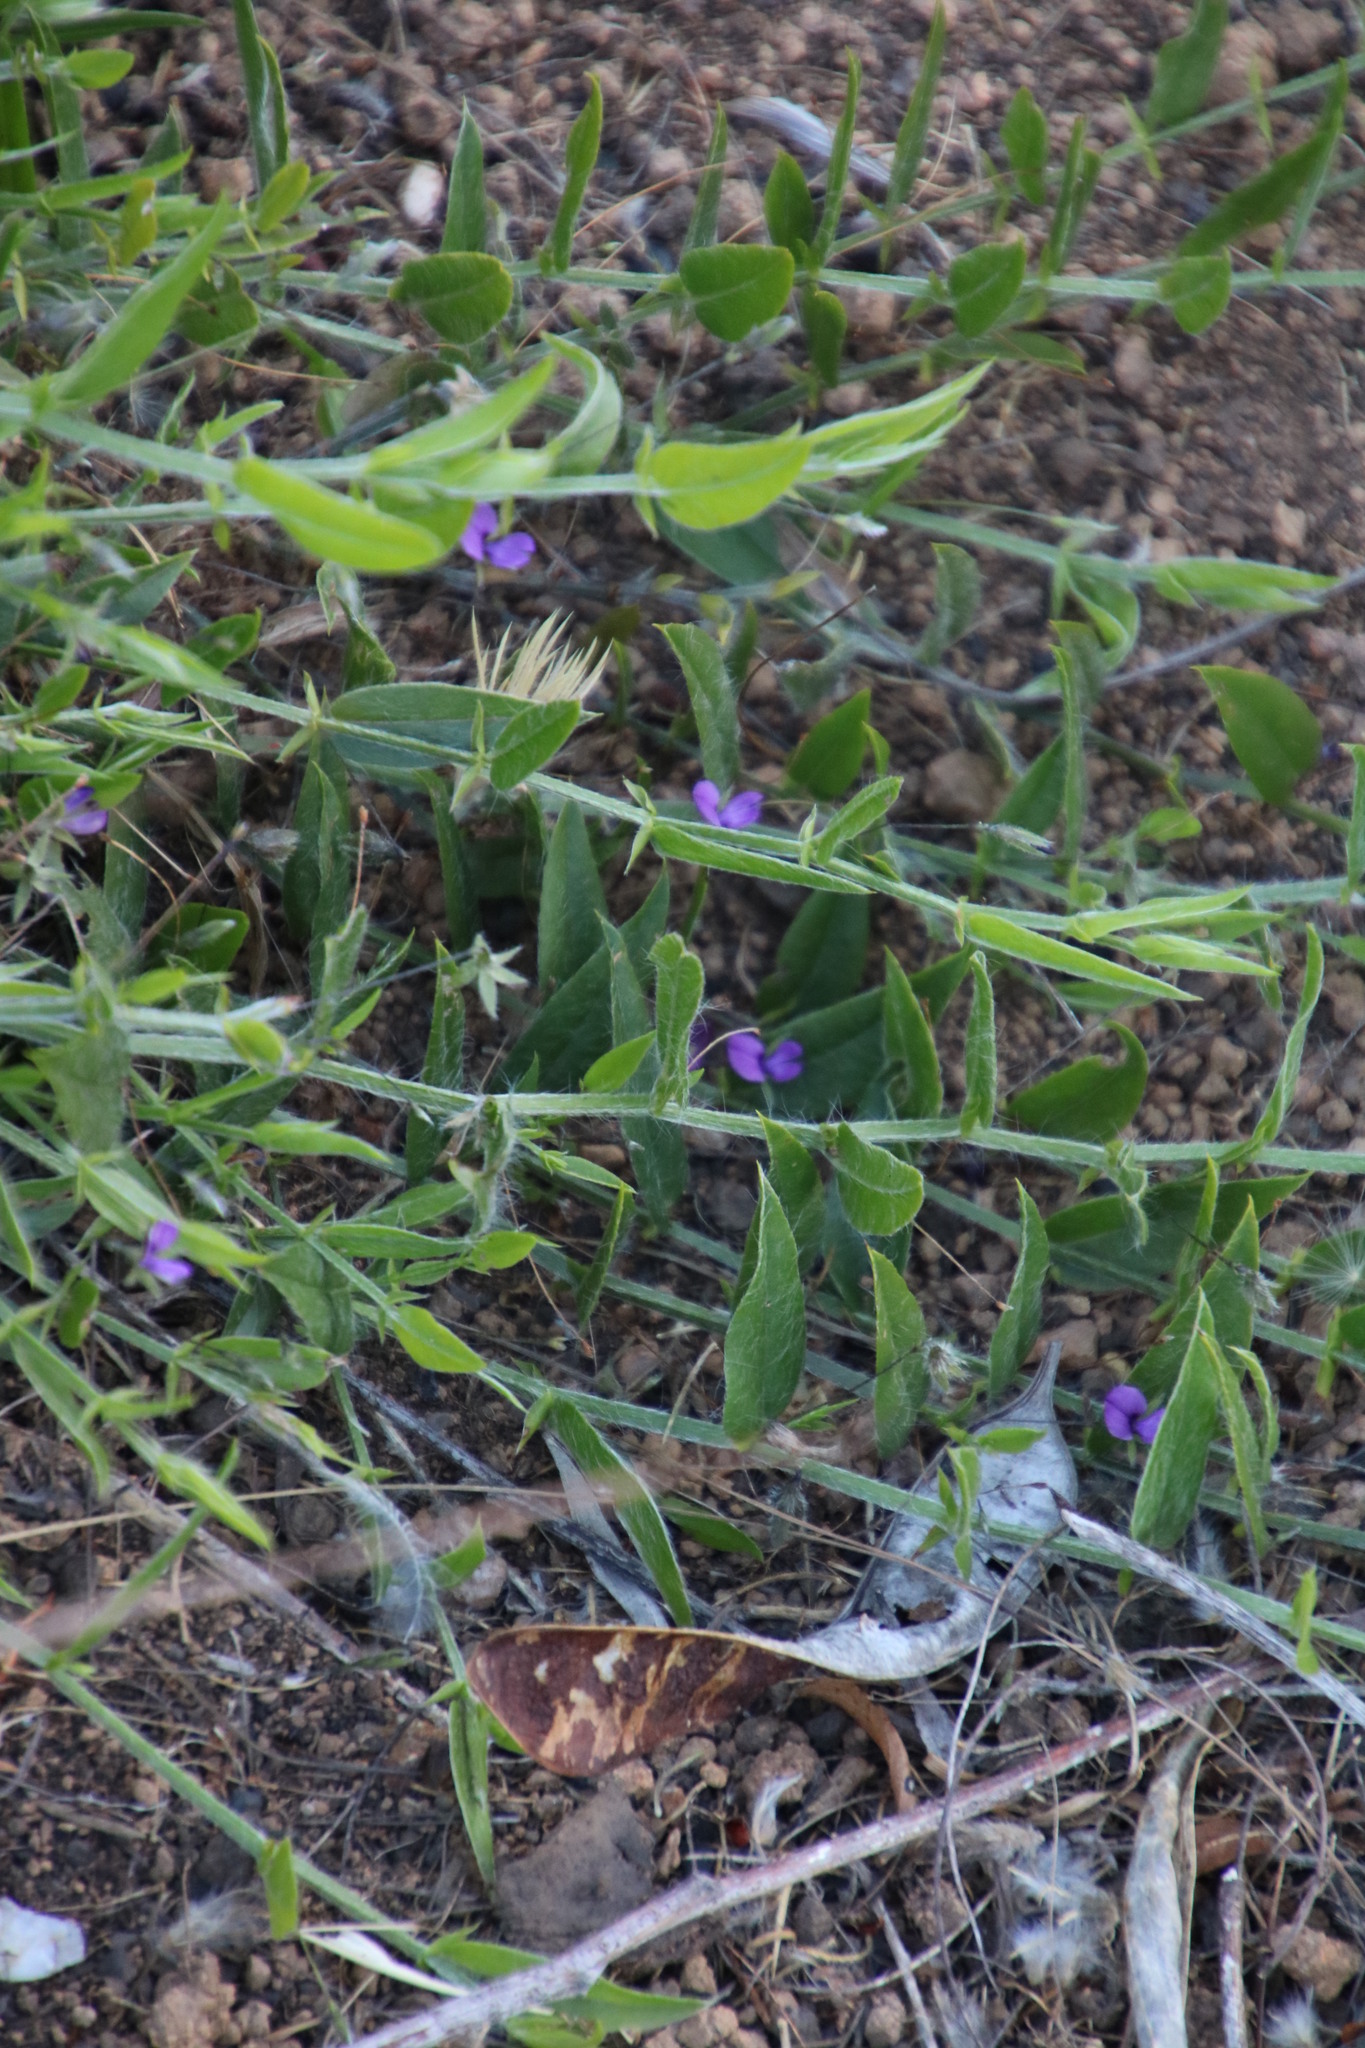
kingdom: Plantae
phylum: Tracheophyta
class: Magnoliopsida
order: Fabales
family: Fabaceae
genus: Psoralea
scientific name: Psoralea monophylla
